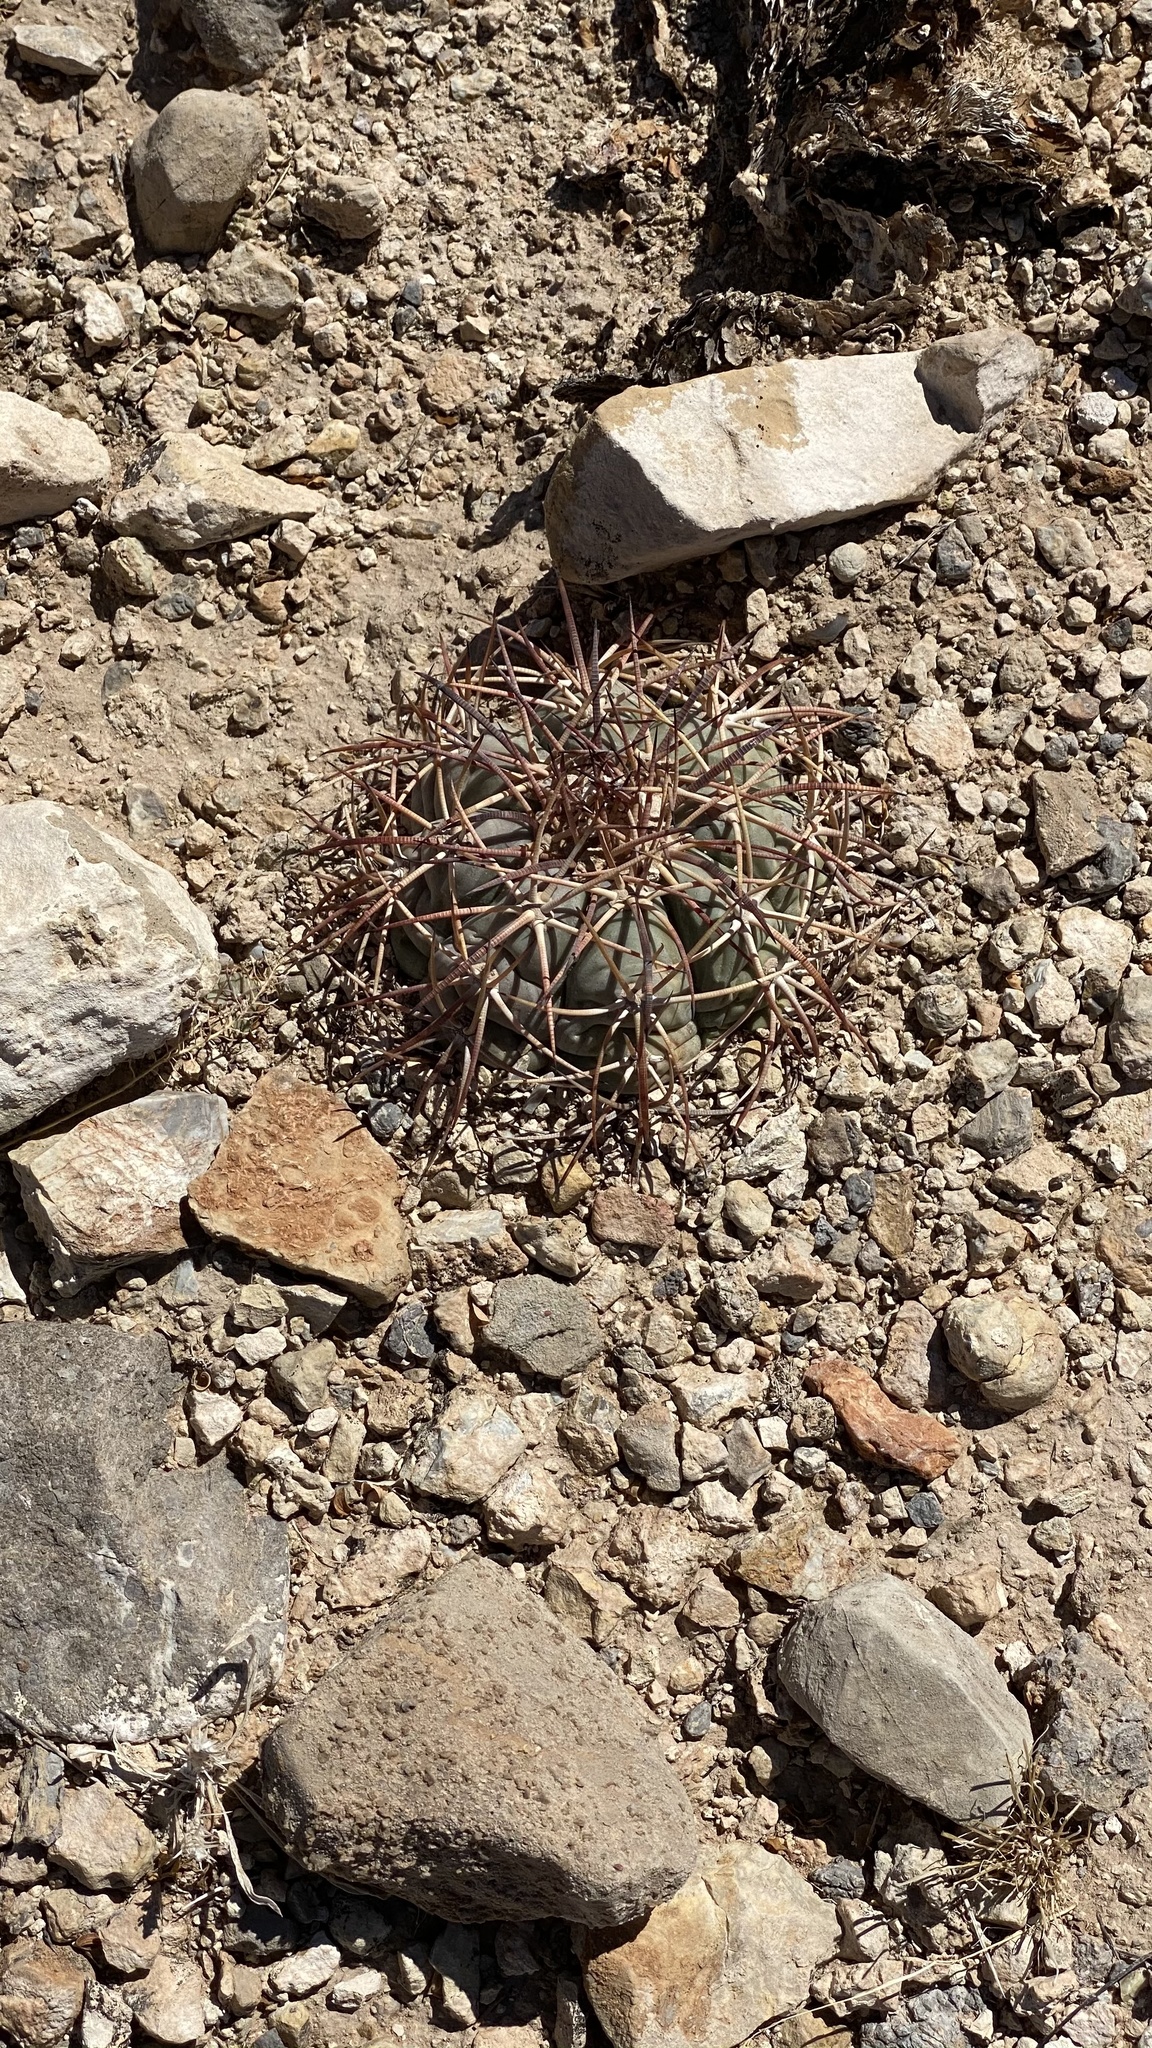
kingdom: Plantae
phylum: Tracheophyta
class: Magnoliopsida
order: Caryophyllales
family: Cactaceae
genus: Echinocactus
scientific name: Echinocactus horizonthalonius
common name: Devilshead
